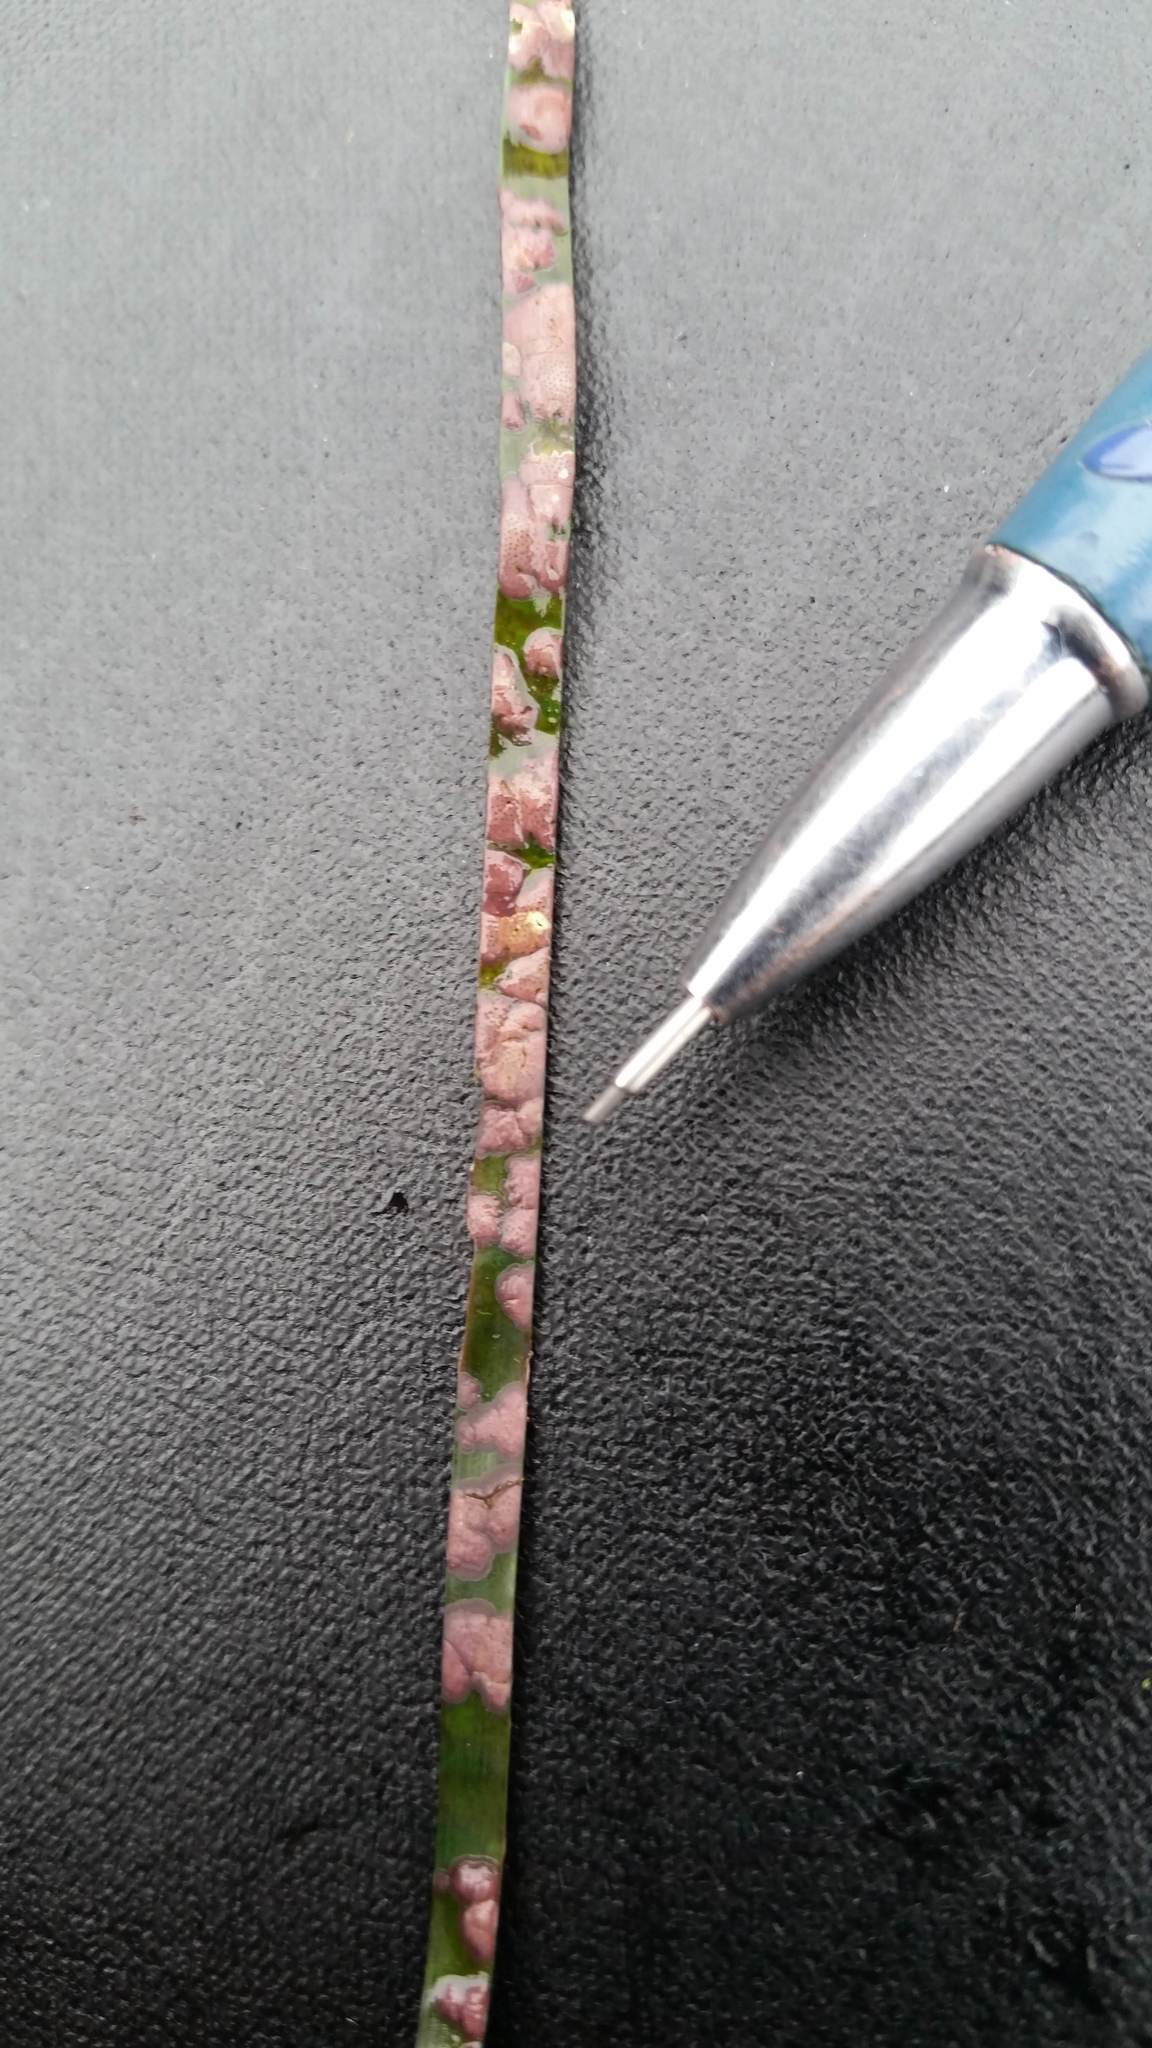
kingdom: Plantae
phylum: Rhodophyta
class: Florideophyceae
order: Corallinales
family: Hapalidiaceae
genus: Melobesia
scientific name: Melobesia mediocris
